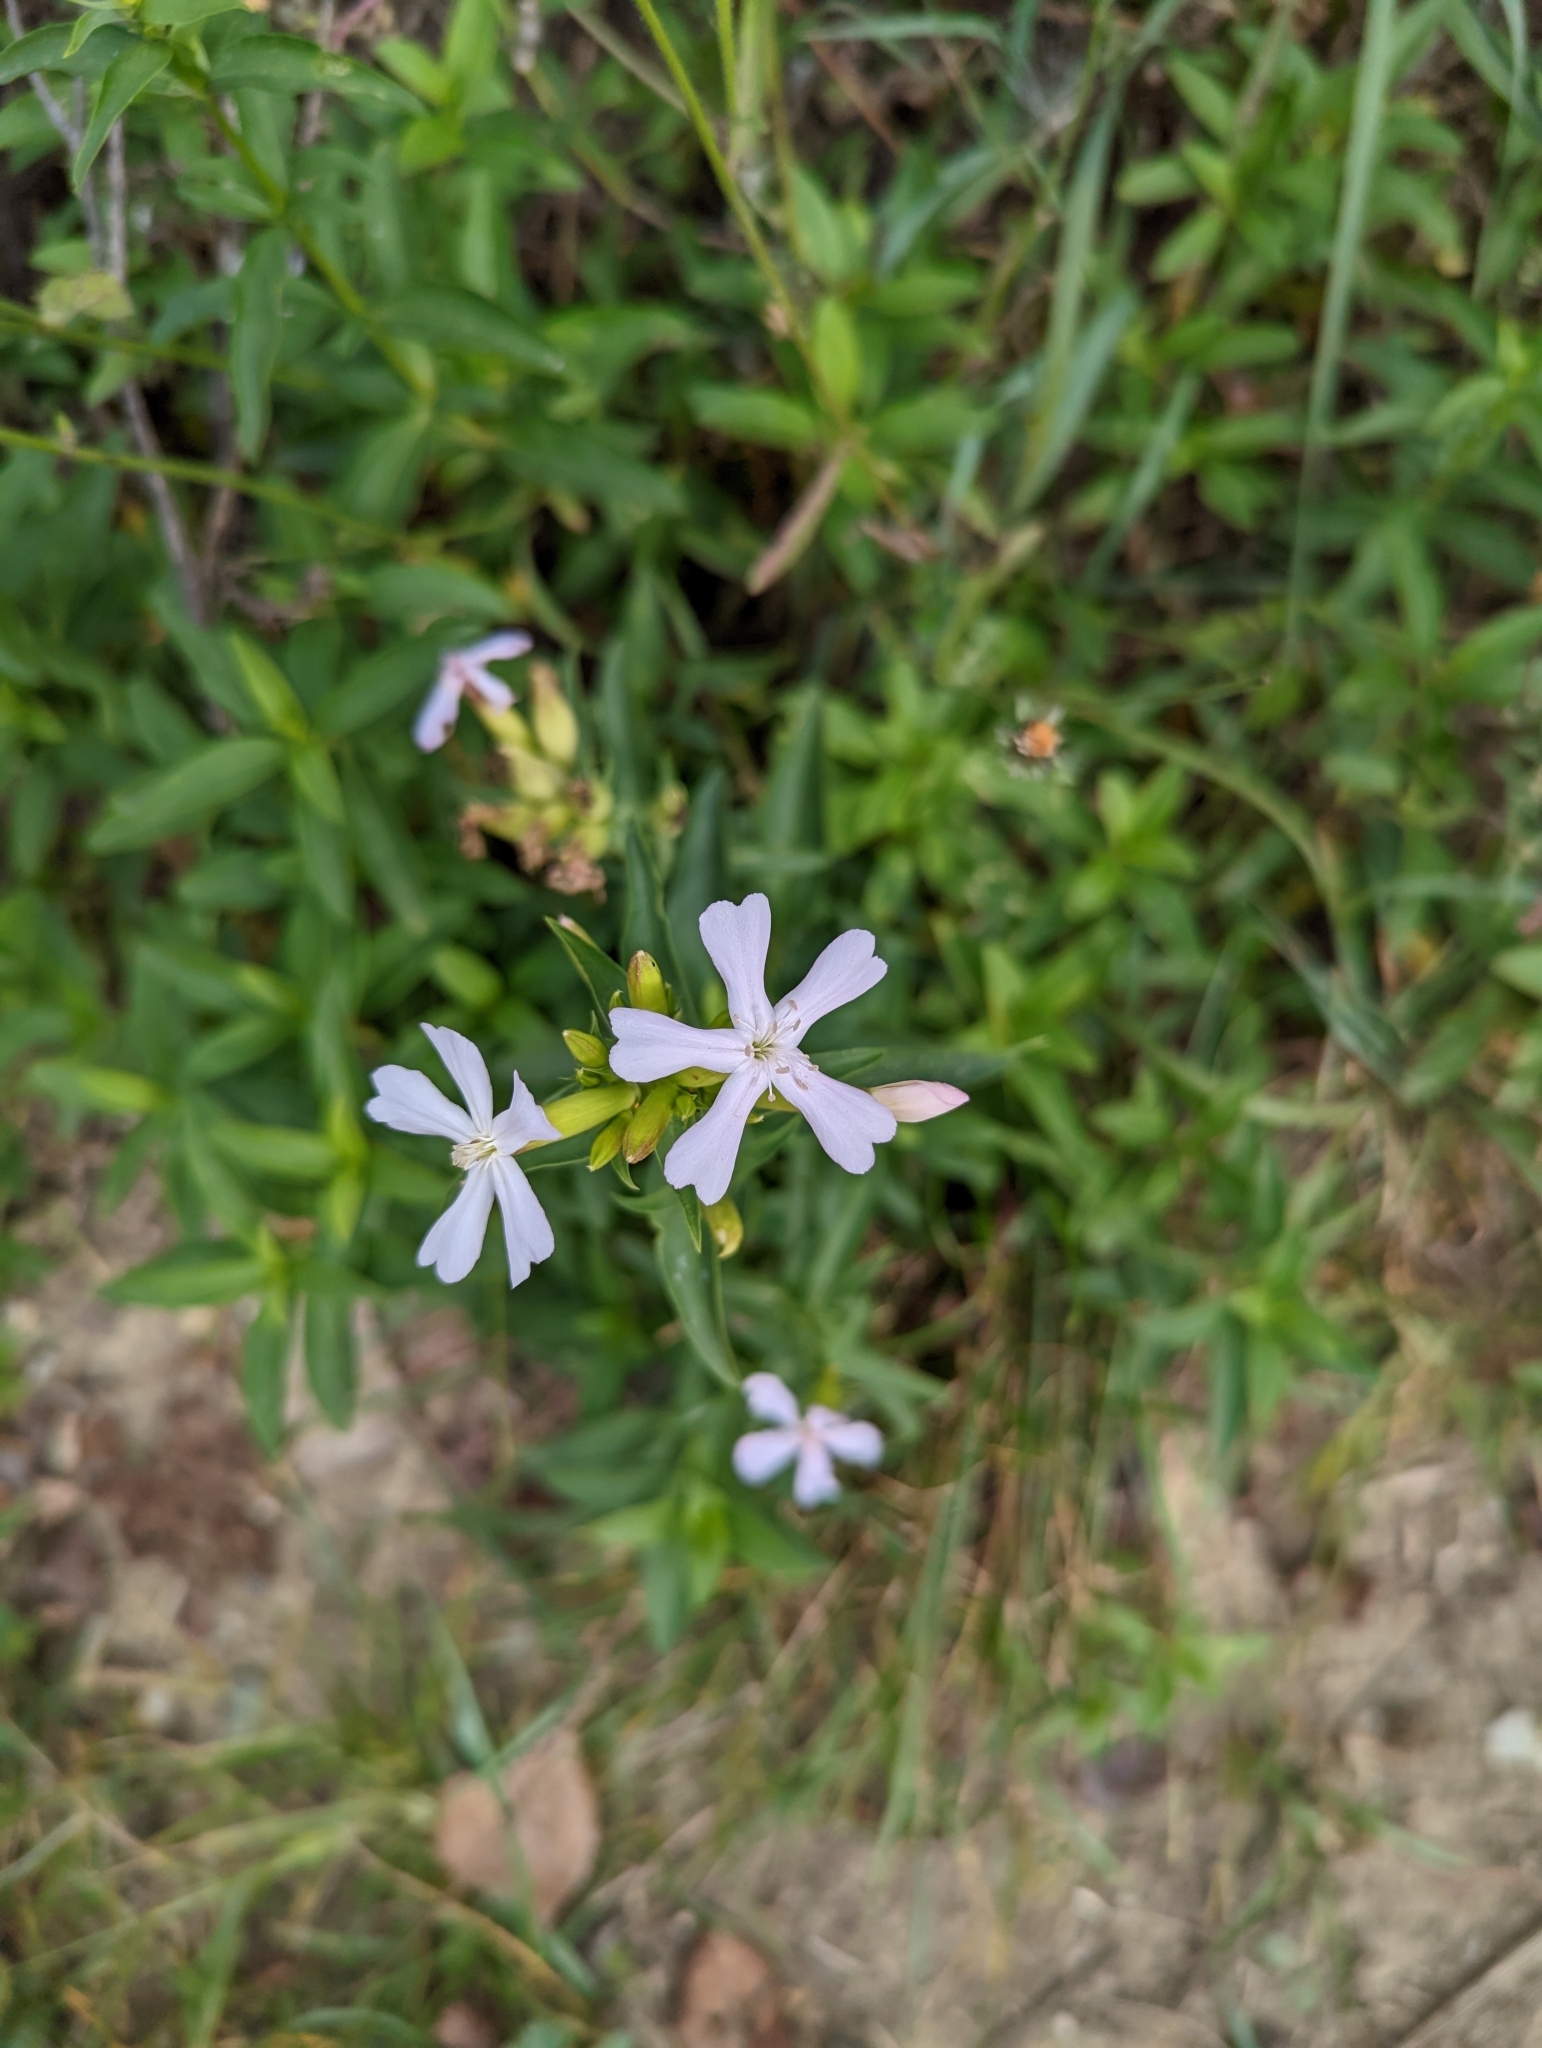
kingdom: Plantae
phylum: Tracheophyta
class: Magnoliopsida
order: Caryophyllales
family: Caryophyllaceae
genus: Saponaria
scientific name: Saponaria officinalis
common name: Soapwort
